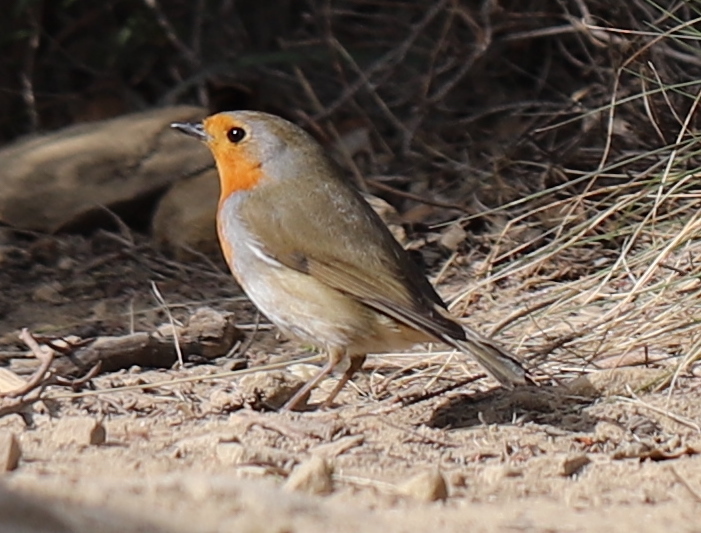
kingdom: Animalia
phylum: Chordata
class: Aves
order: Passeriformes
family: Muscicapidae
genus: Erithacus
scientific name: Erithacus rubecula
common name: European robin
